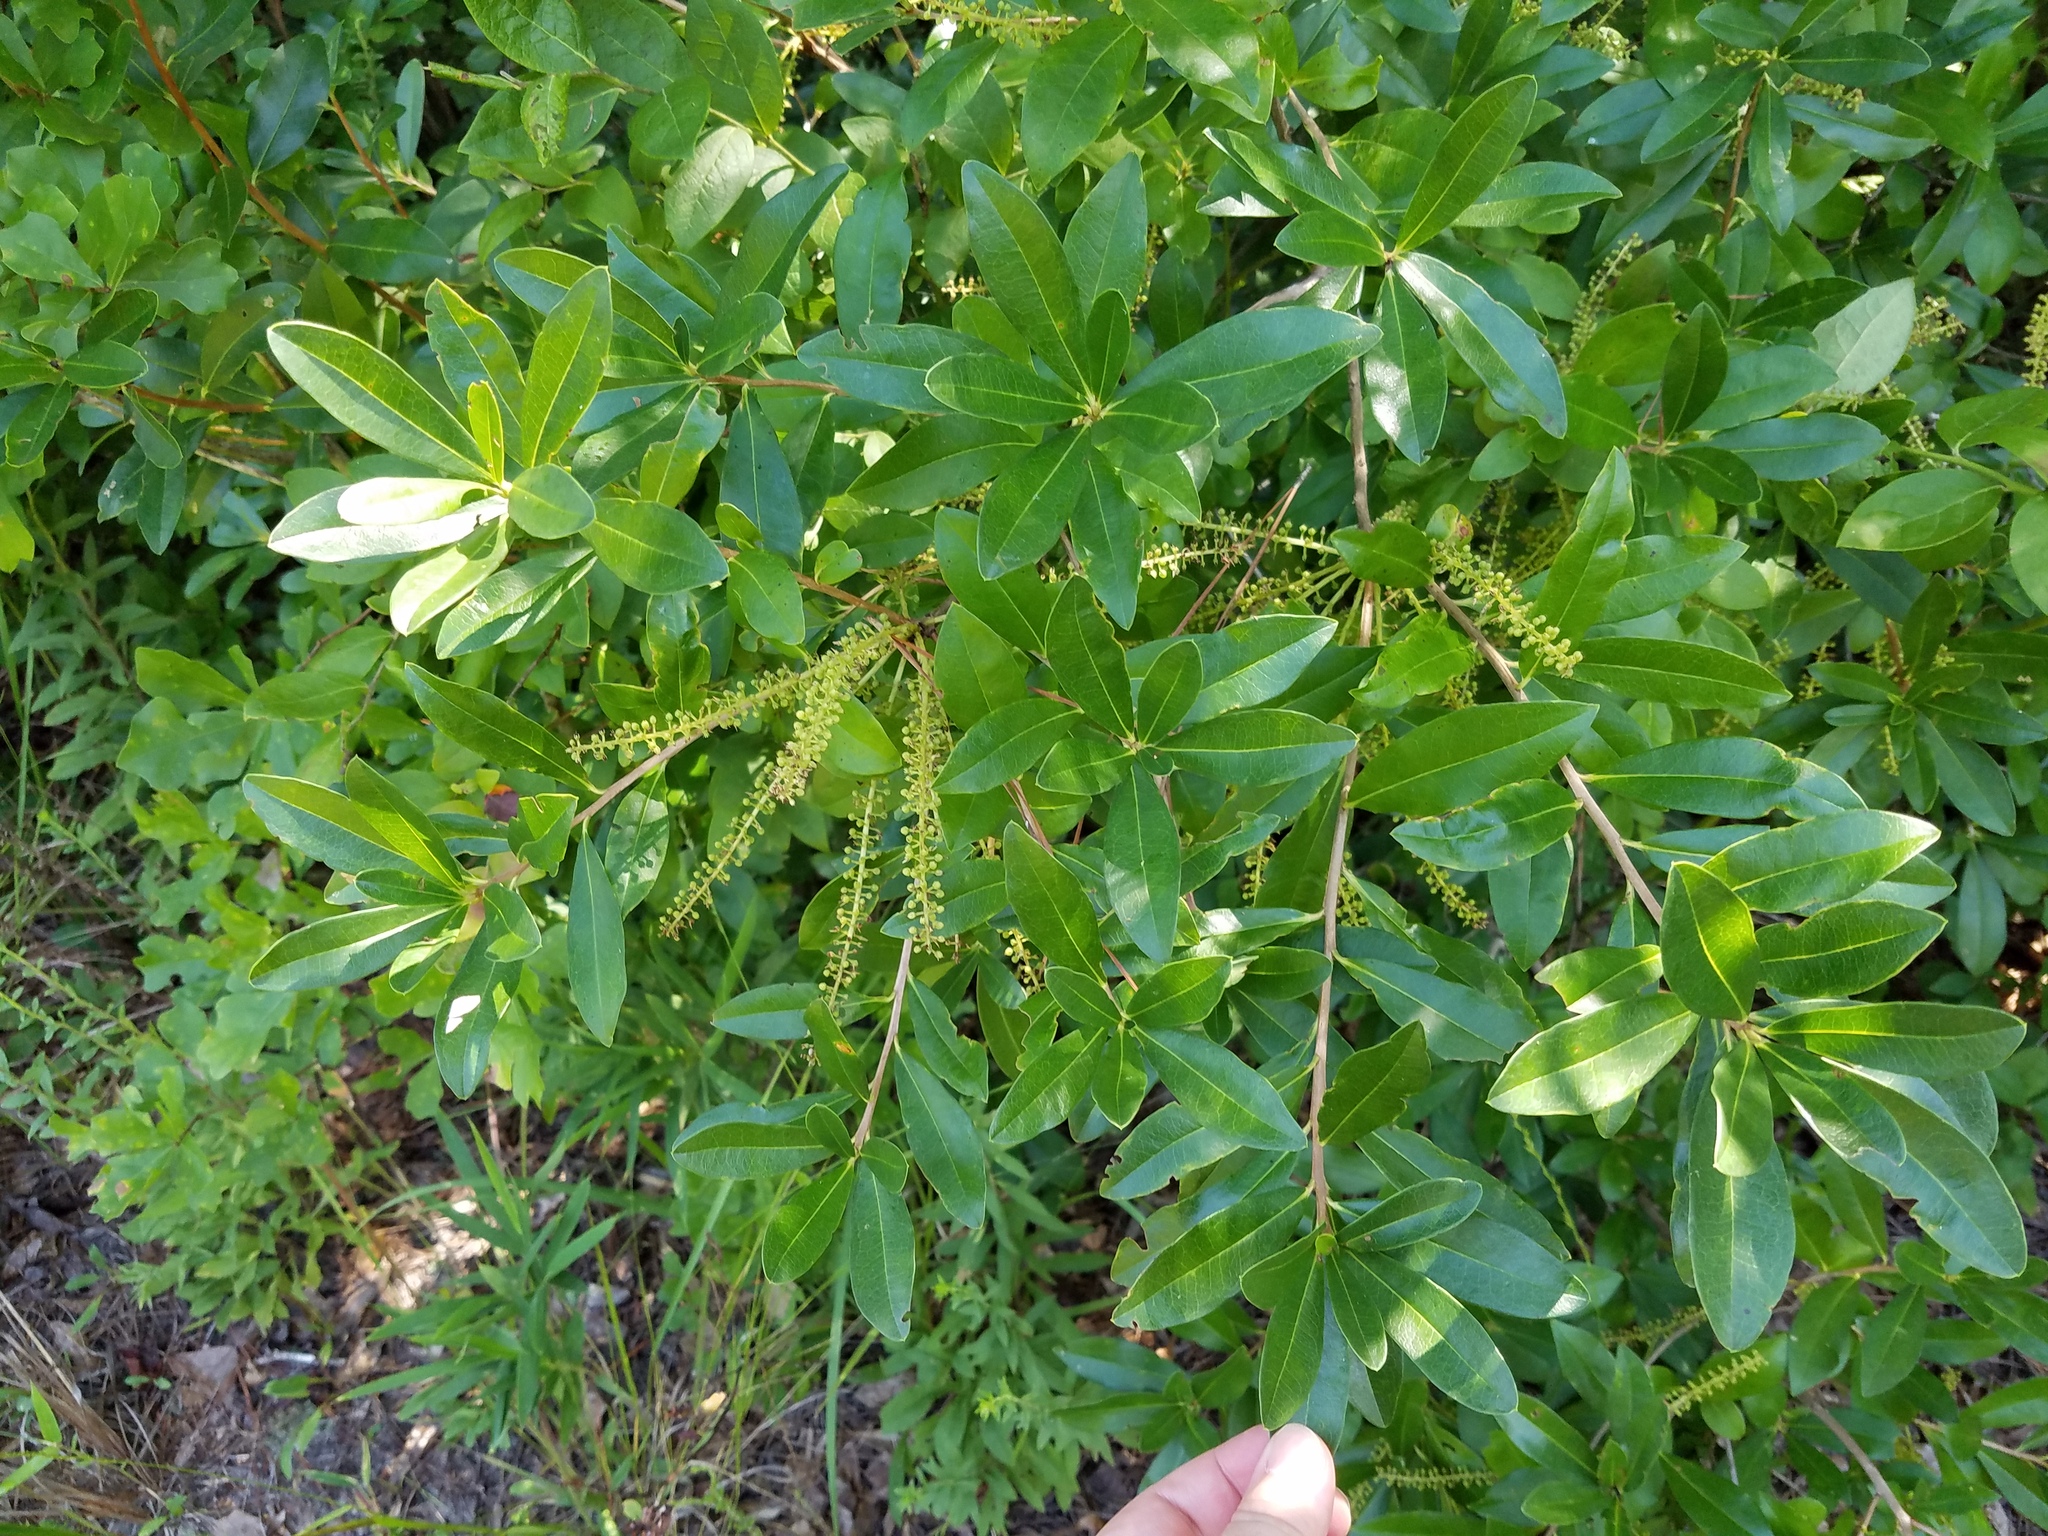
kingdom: Plantae
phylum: Tracheophyta
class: Magnoliopsida
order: Ericales
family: Cyrillaceae
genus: Cyrilla
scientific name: Cyrilla racemiflora
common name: Black titi
